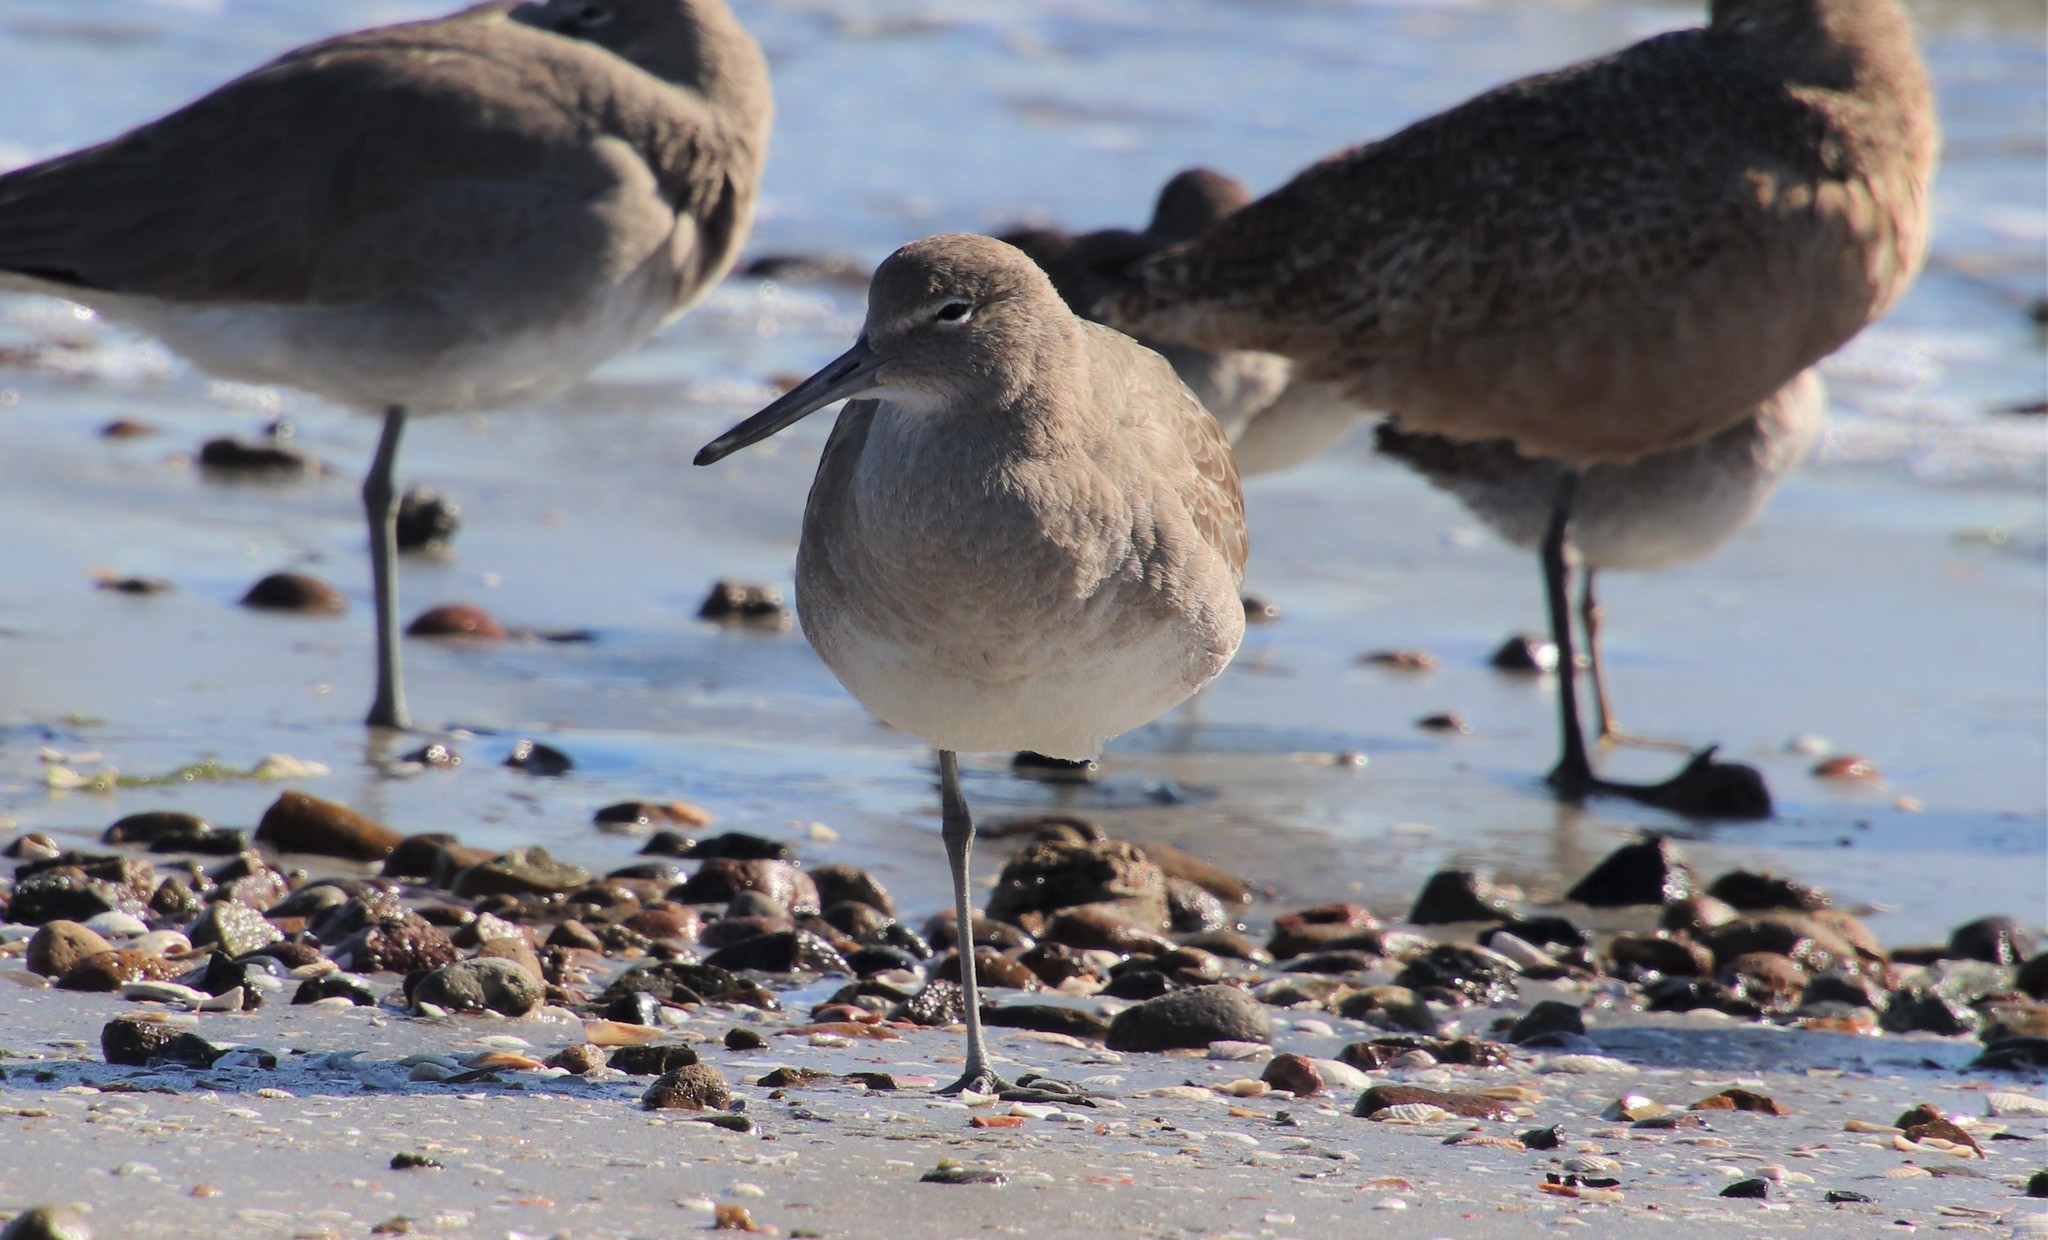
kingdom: Animalia
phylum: Chordata
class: Aves
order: Charadriiformes
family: Scolopacidae
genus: Tringa
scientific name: Tringa semipalmata
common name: Willet
